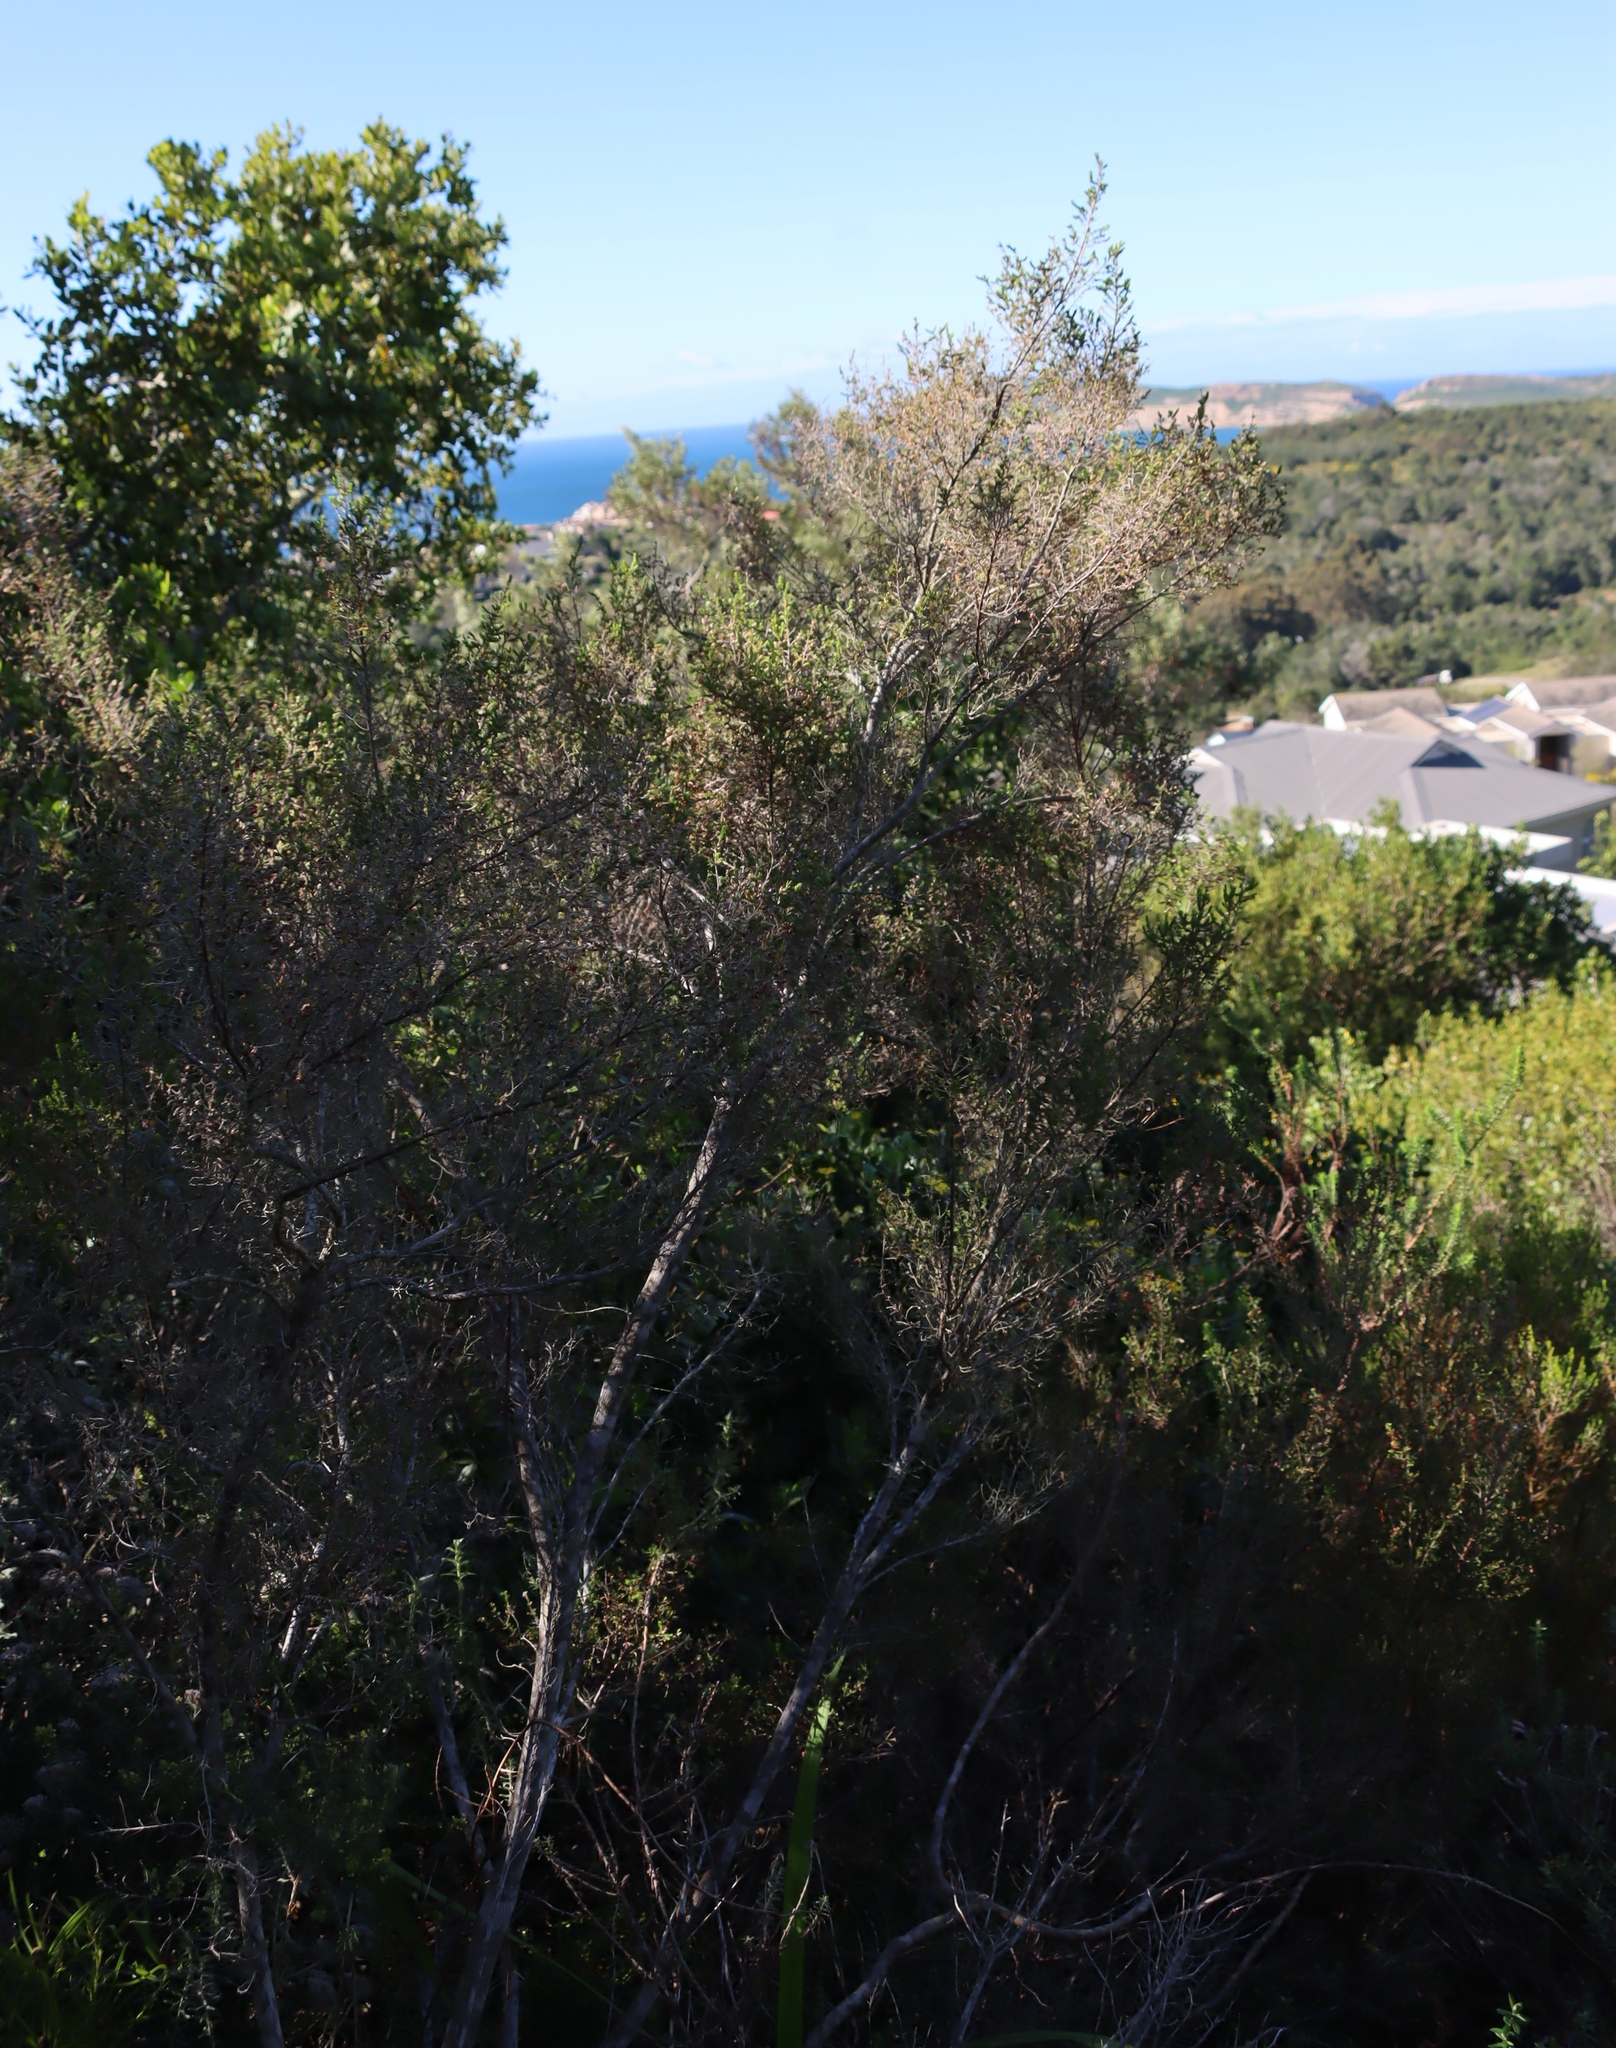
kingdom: Plantae
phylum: Tracheophyta
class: Magnoliopsida
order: Ericales
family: Ericaceae
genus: Erica
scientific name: Erica peltata
